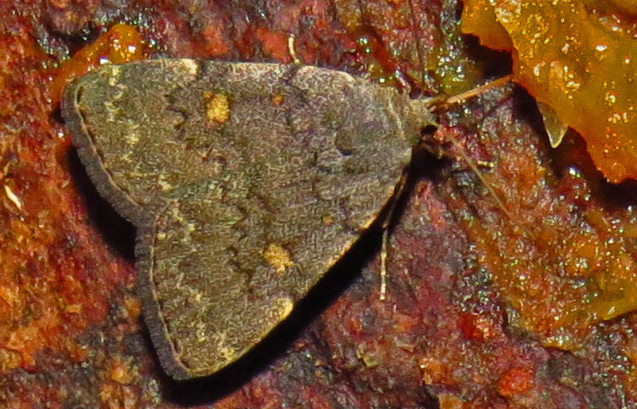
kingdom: Animalia
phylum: Arthropoda
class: Insecta
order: Lepidoptera
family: Erebidae
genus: Idia
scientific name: Idia aemula
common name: Common idia moth
